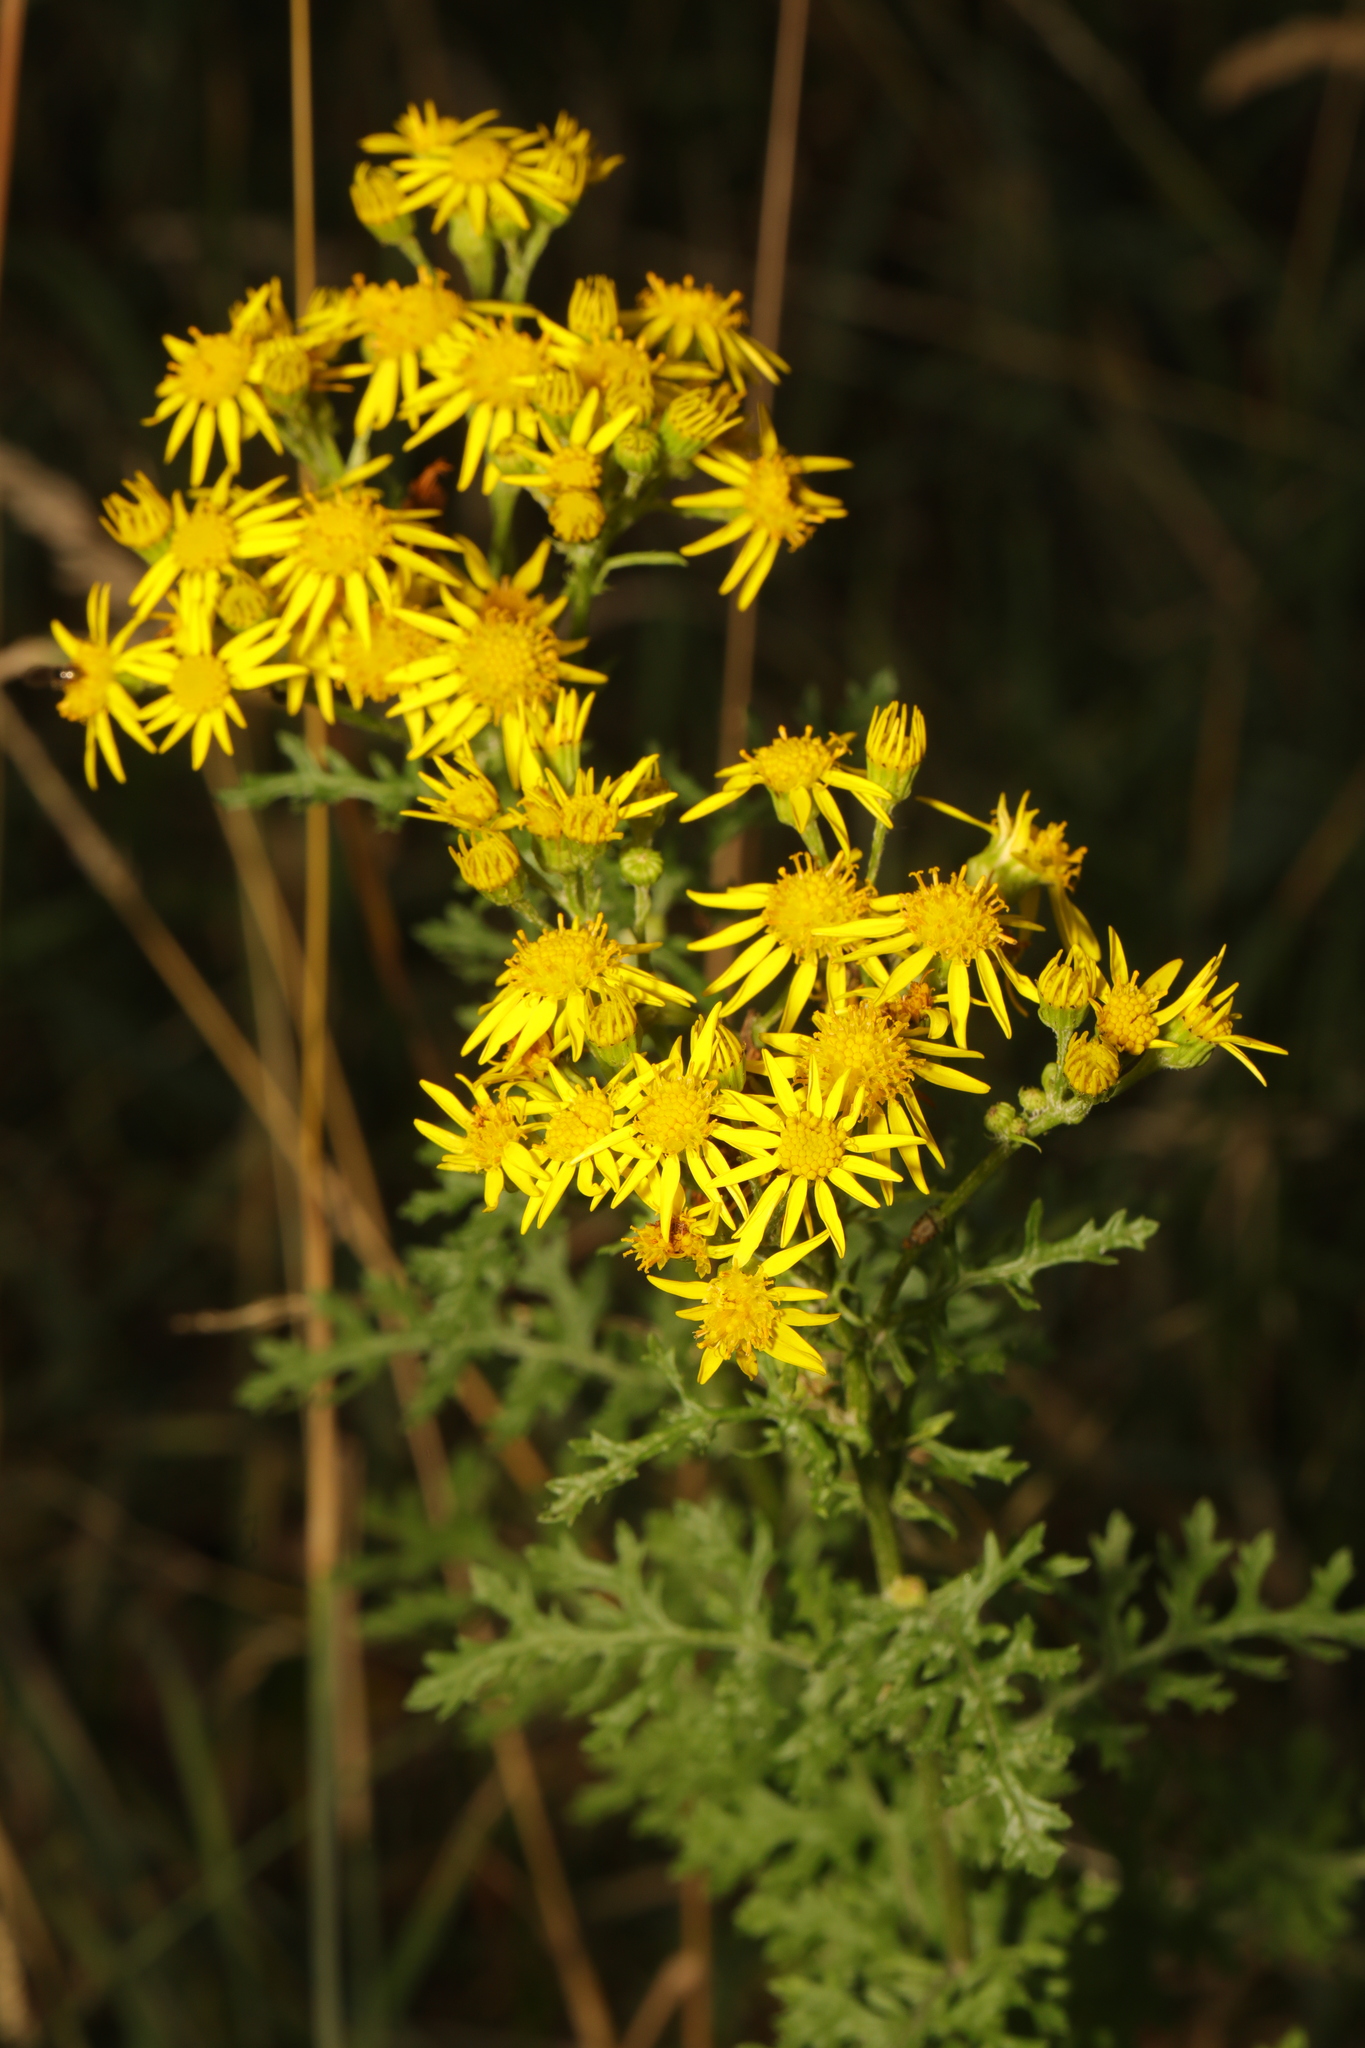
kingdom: Plantae
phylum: Tracheophyta
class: Magnoliopsida
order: Asterales
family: Asteraceae
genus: Jacobaea
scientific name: Jacobaea vulgaris
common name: Stinking willie
